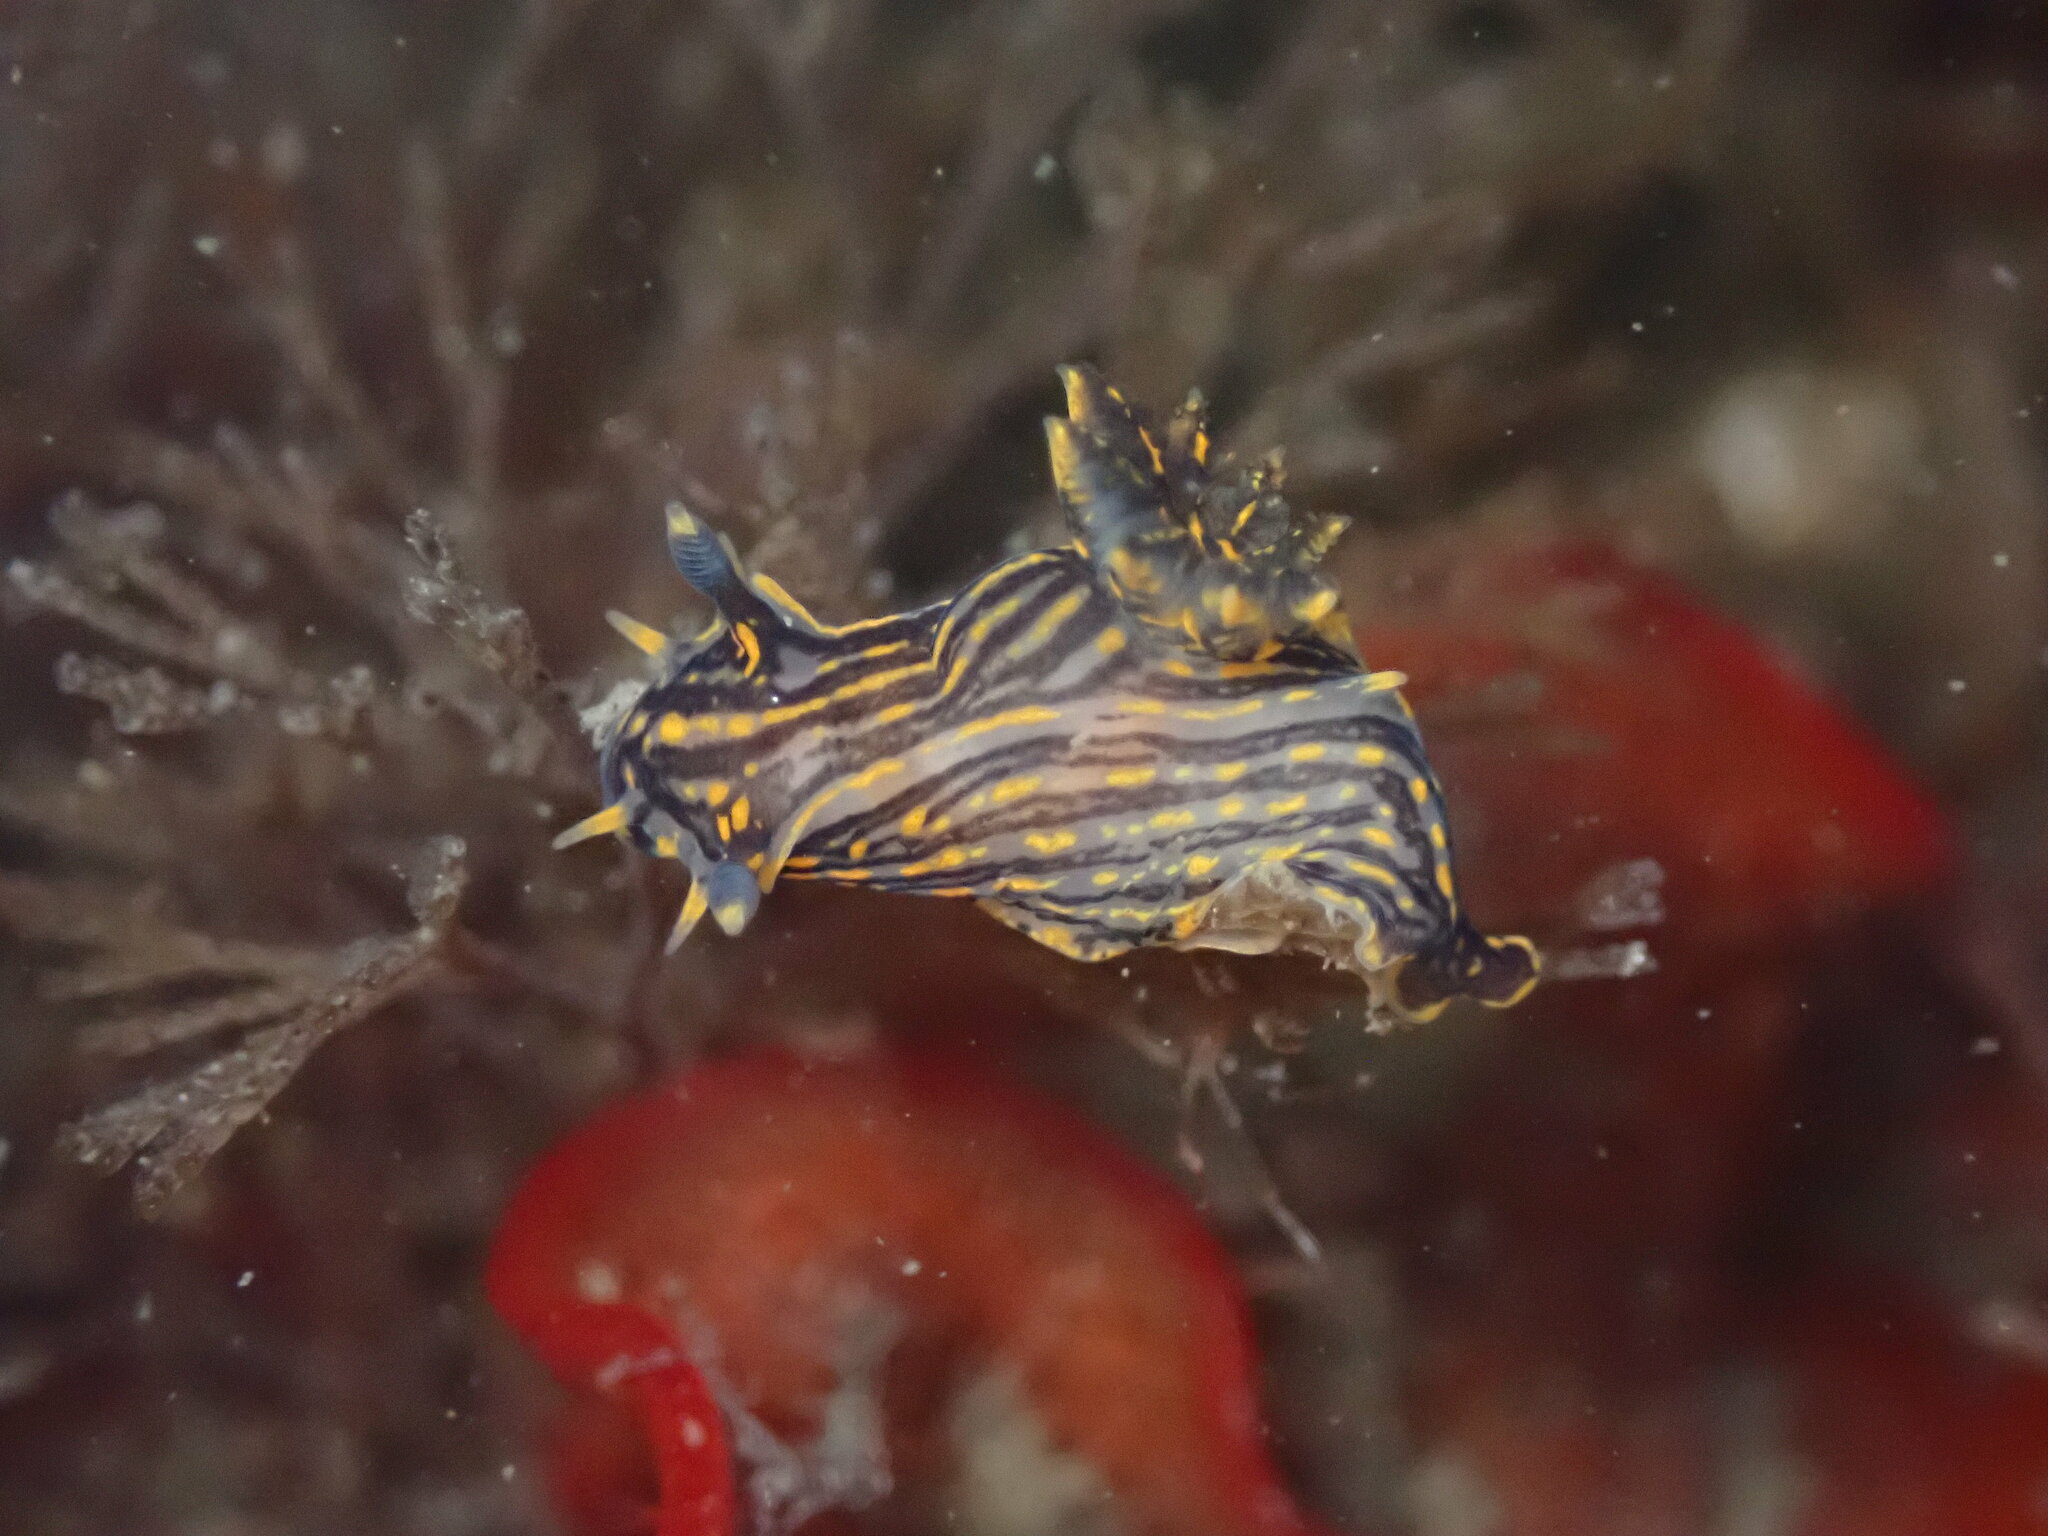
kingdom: Animalia
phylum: Mollusca
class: Gastropoda
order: Nudibranchia
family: Polyceridae
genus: Polycera
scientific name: Polycera atra
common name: Orange-spike polycera
